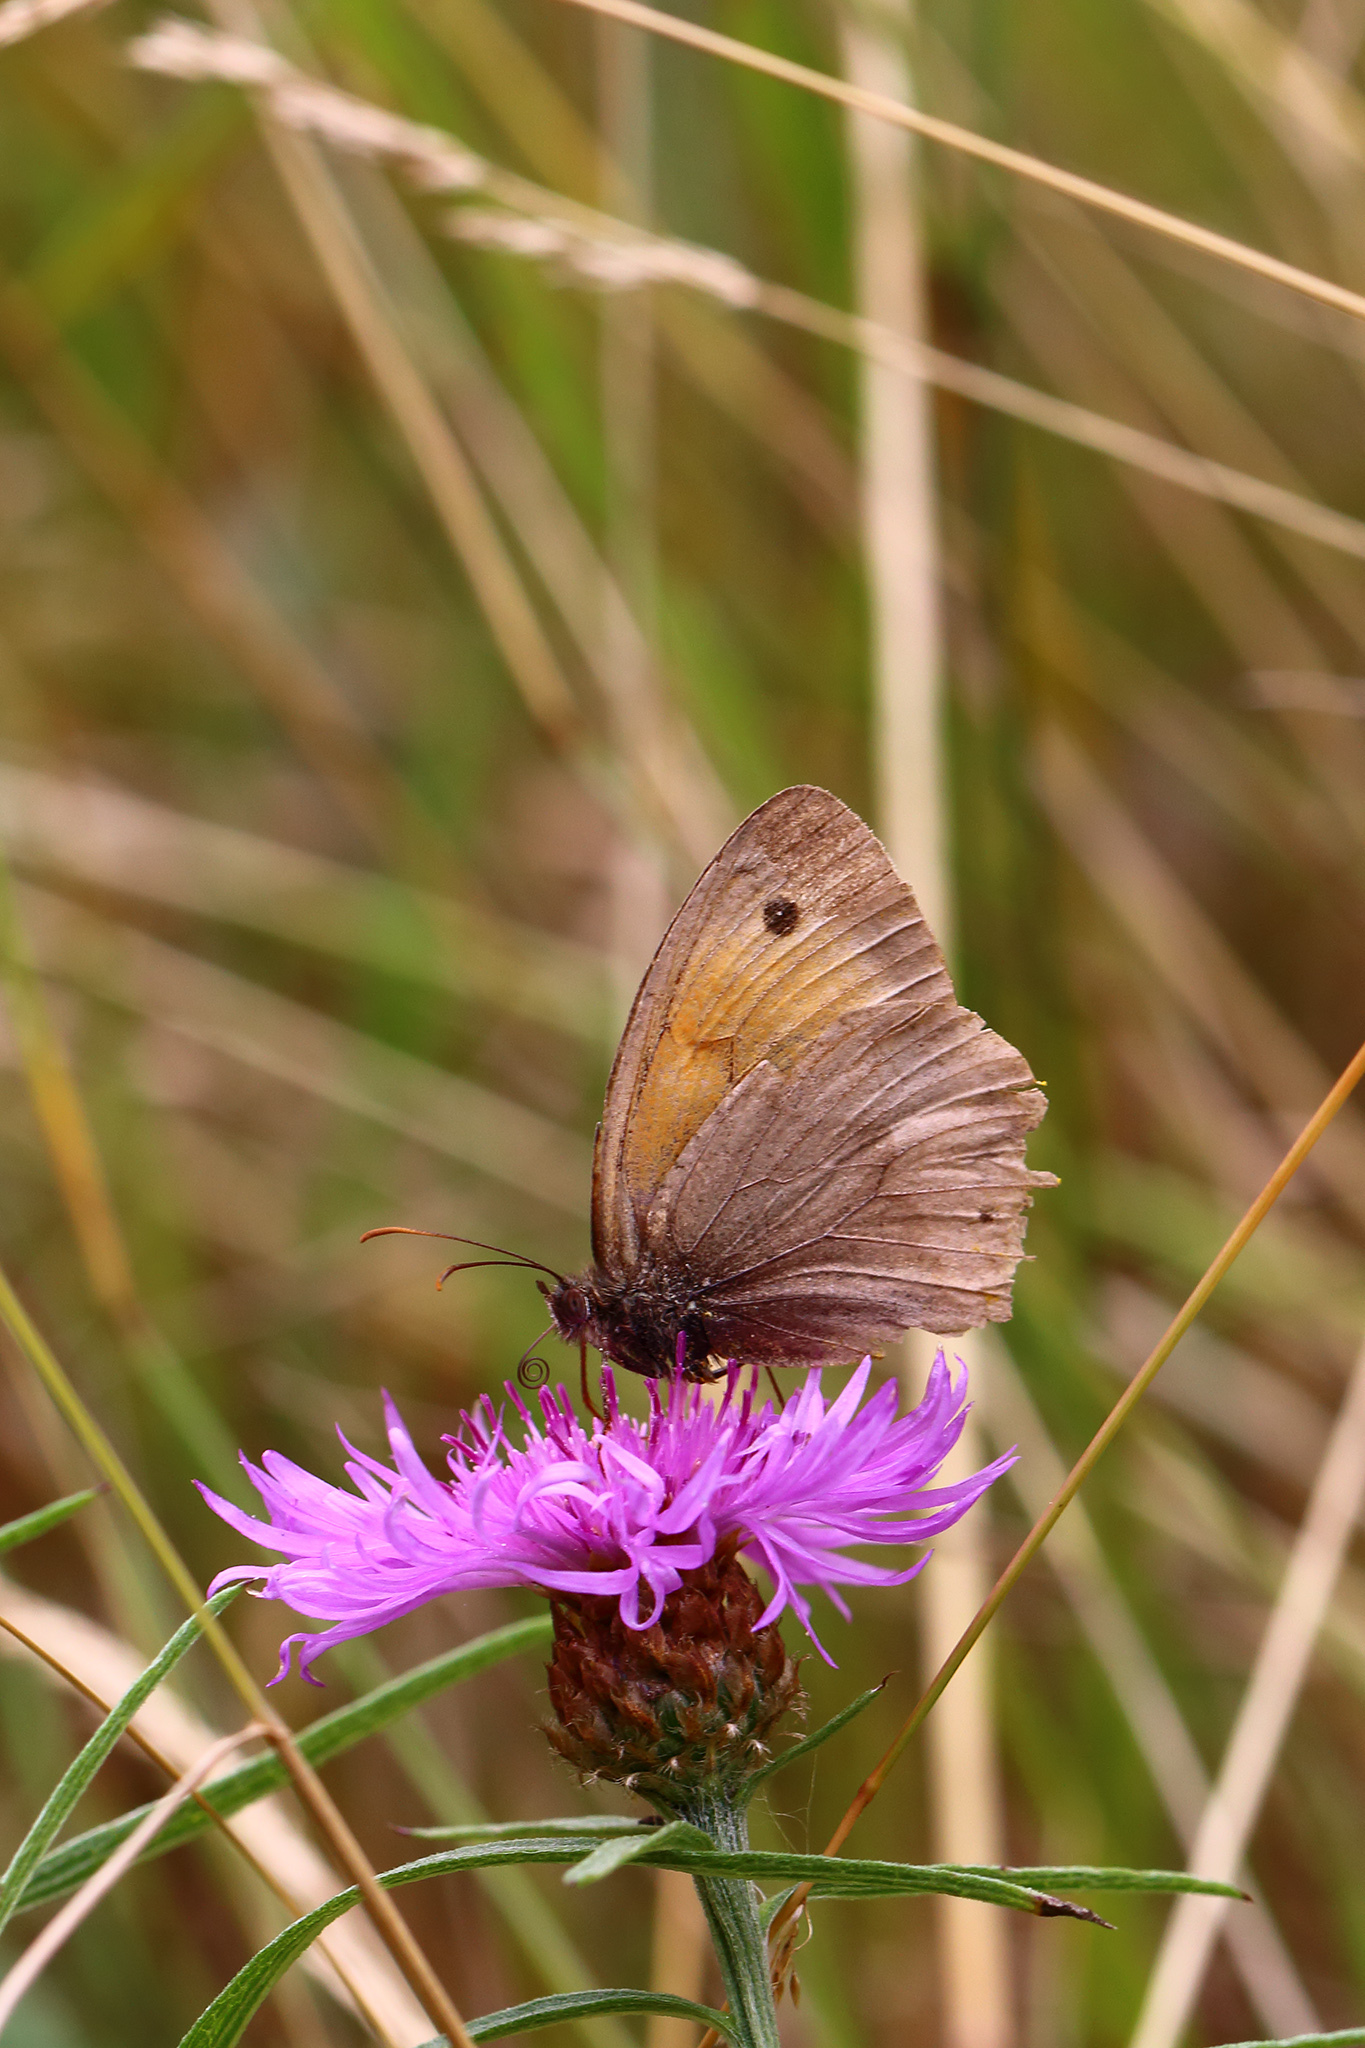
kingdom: Animalia
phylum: Arthropoda
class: Insecta
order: Lepidoptera
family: Nymphalidae
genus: Maniola
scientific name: Maniola jurtina
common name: Meadow brown
